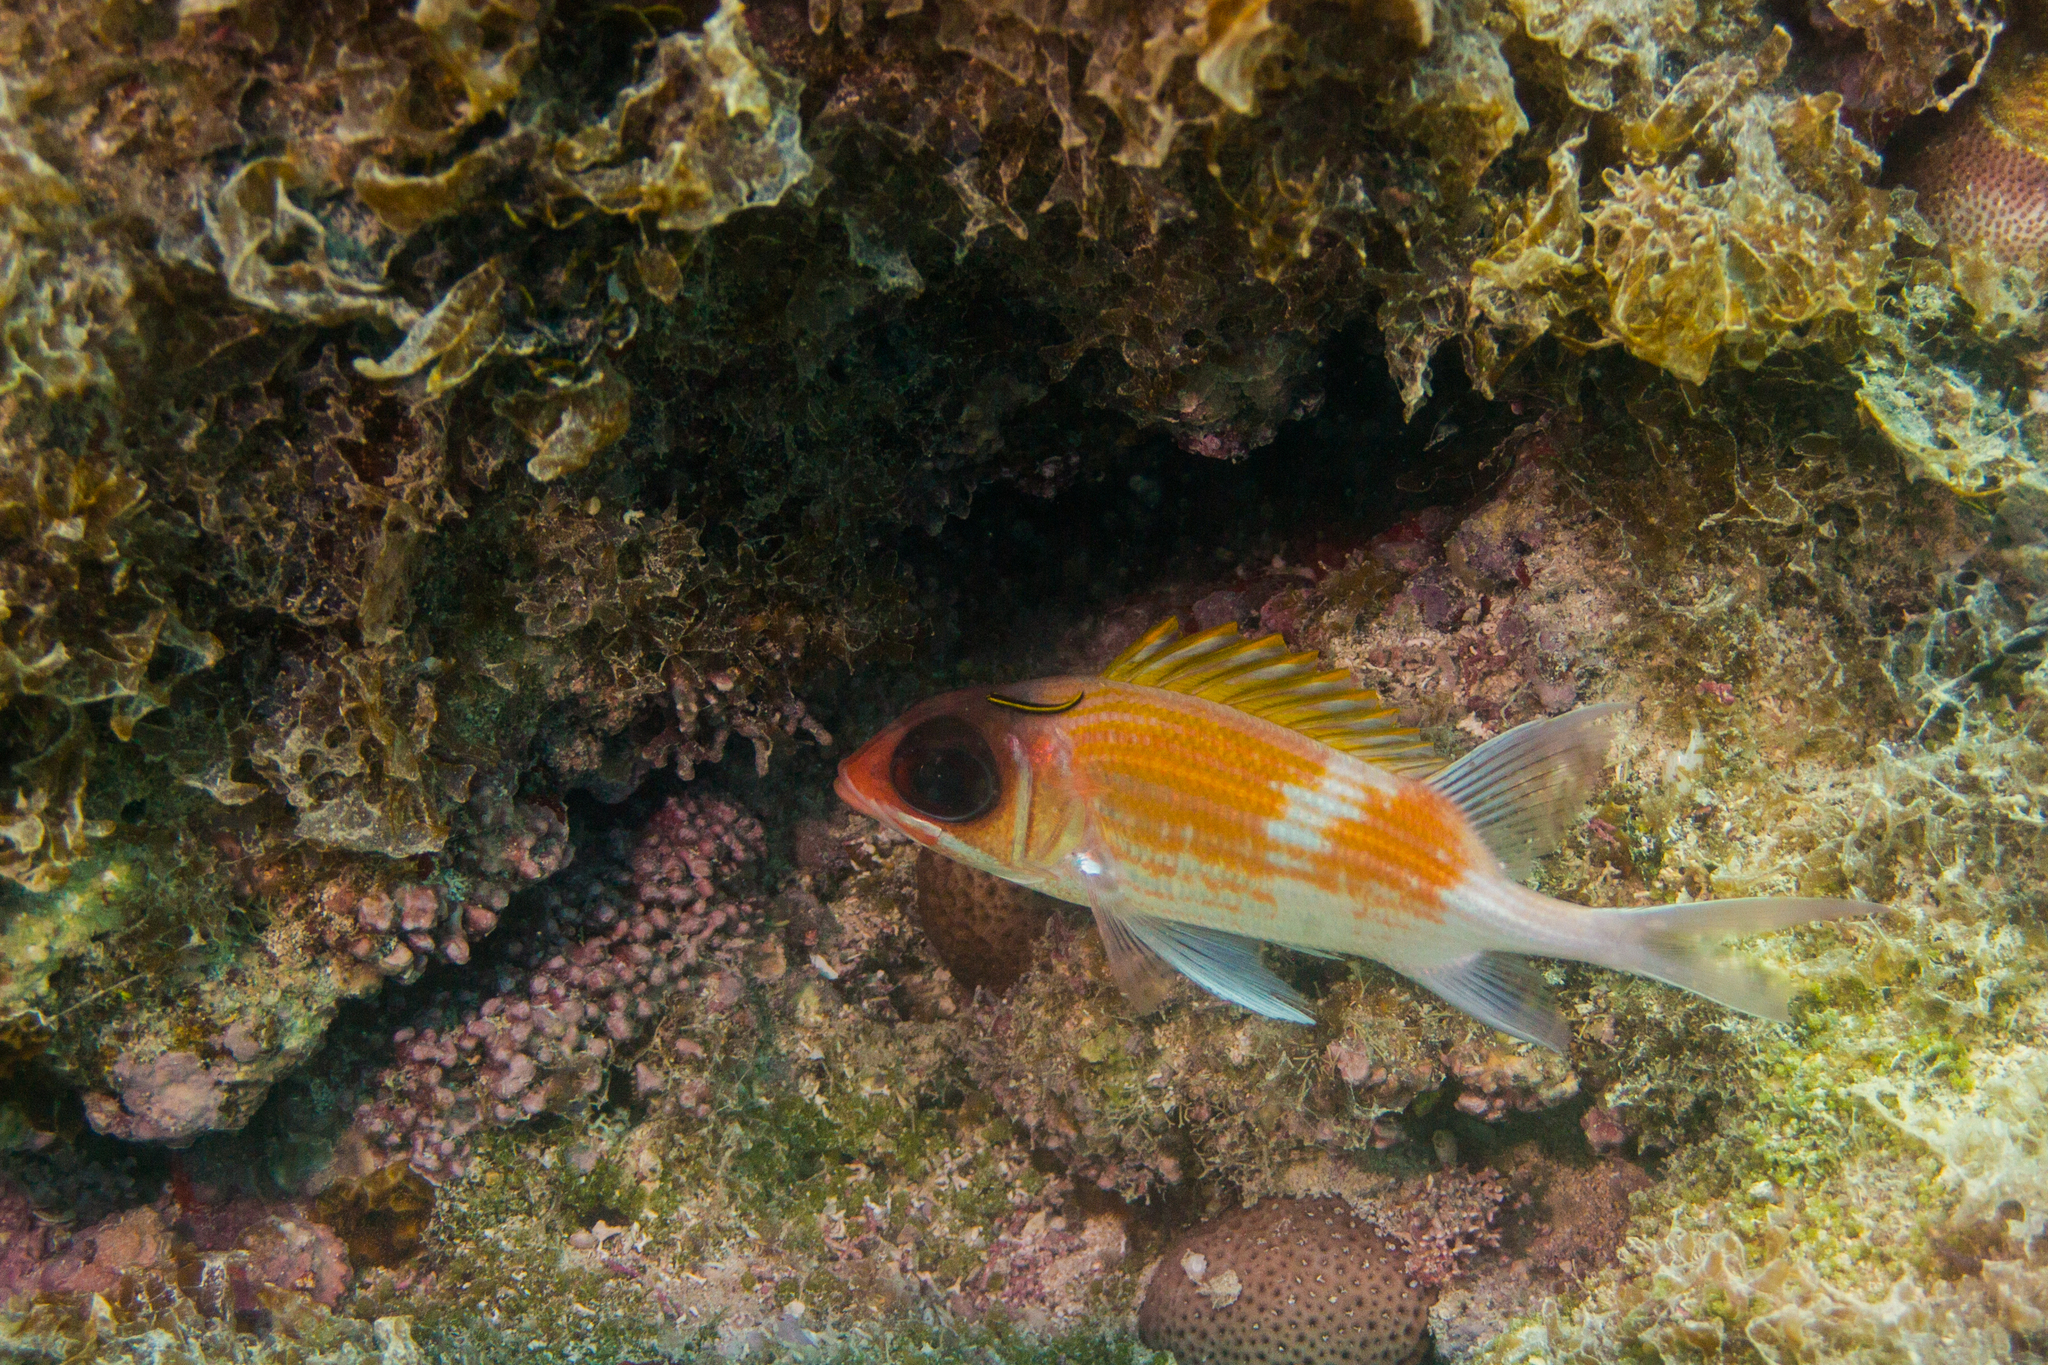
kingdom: Animalia
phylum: Chordata
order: Beryciformes
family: Holocentridae
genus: Holocentrus
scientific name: Holocentrus adscensionis
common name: Squirrelfish
